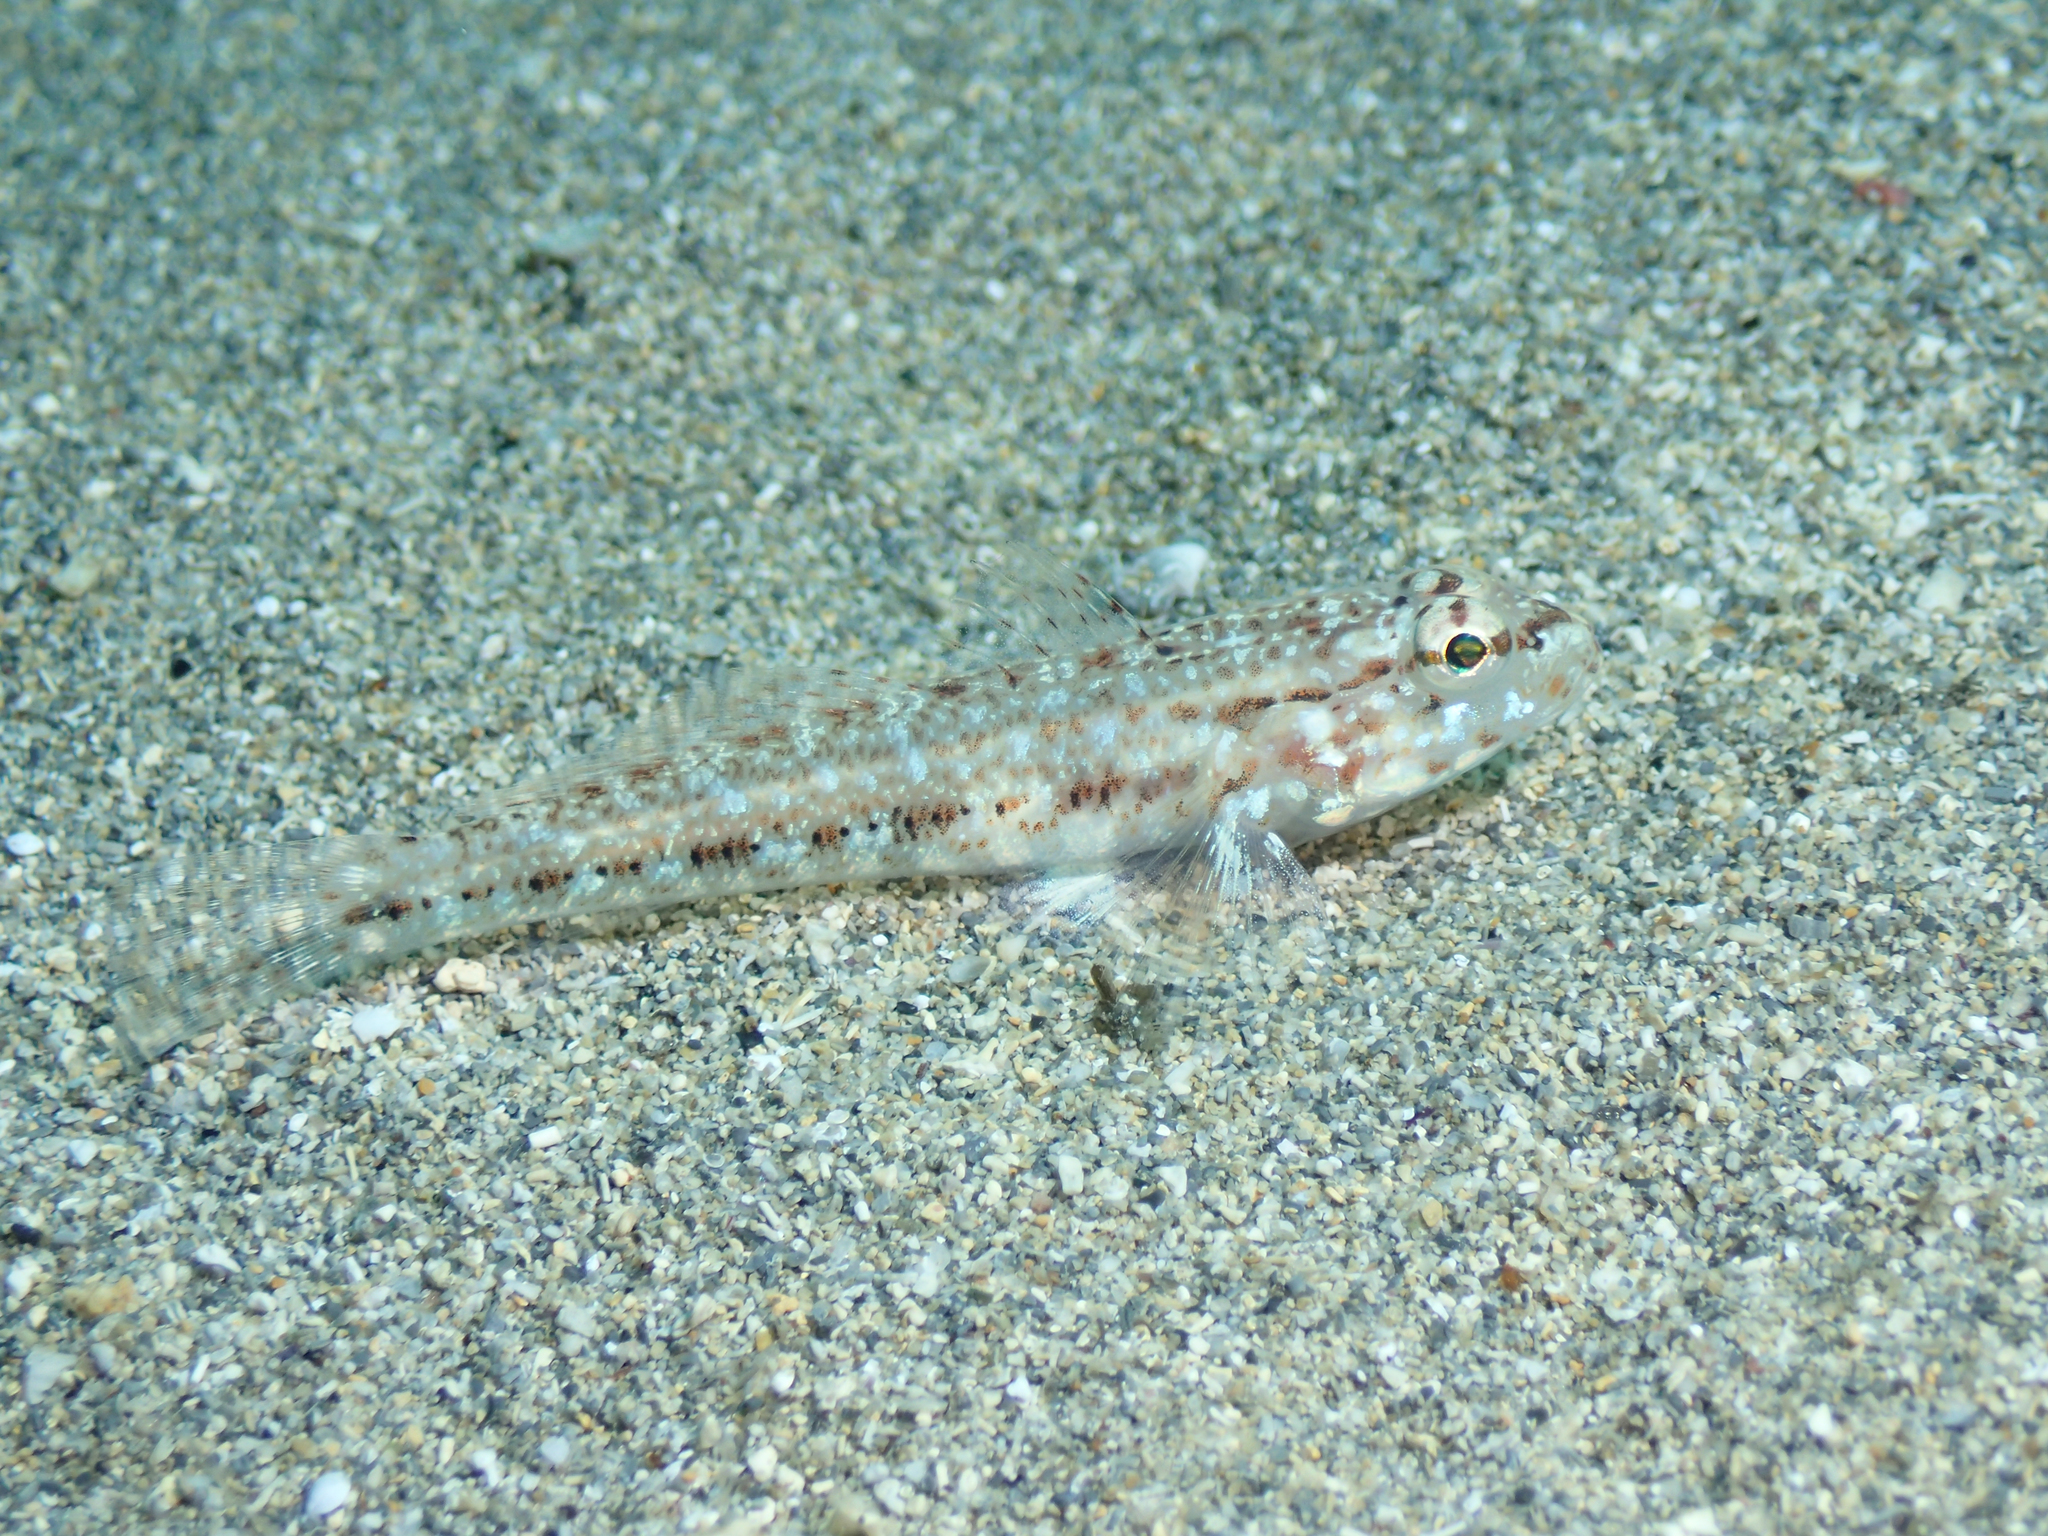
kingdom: Animalia
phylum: Chordata
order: Perciformes
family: Gobiidae
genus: Gobius
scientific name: Gobius geniporus
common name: Slender goby
